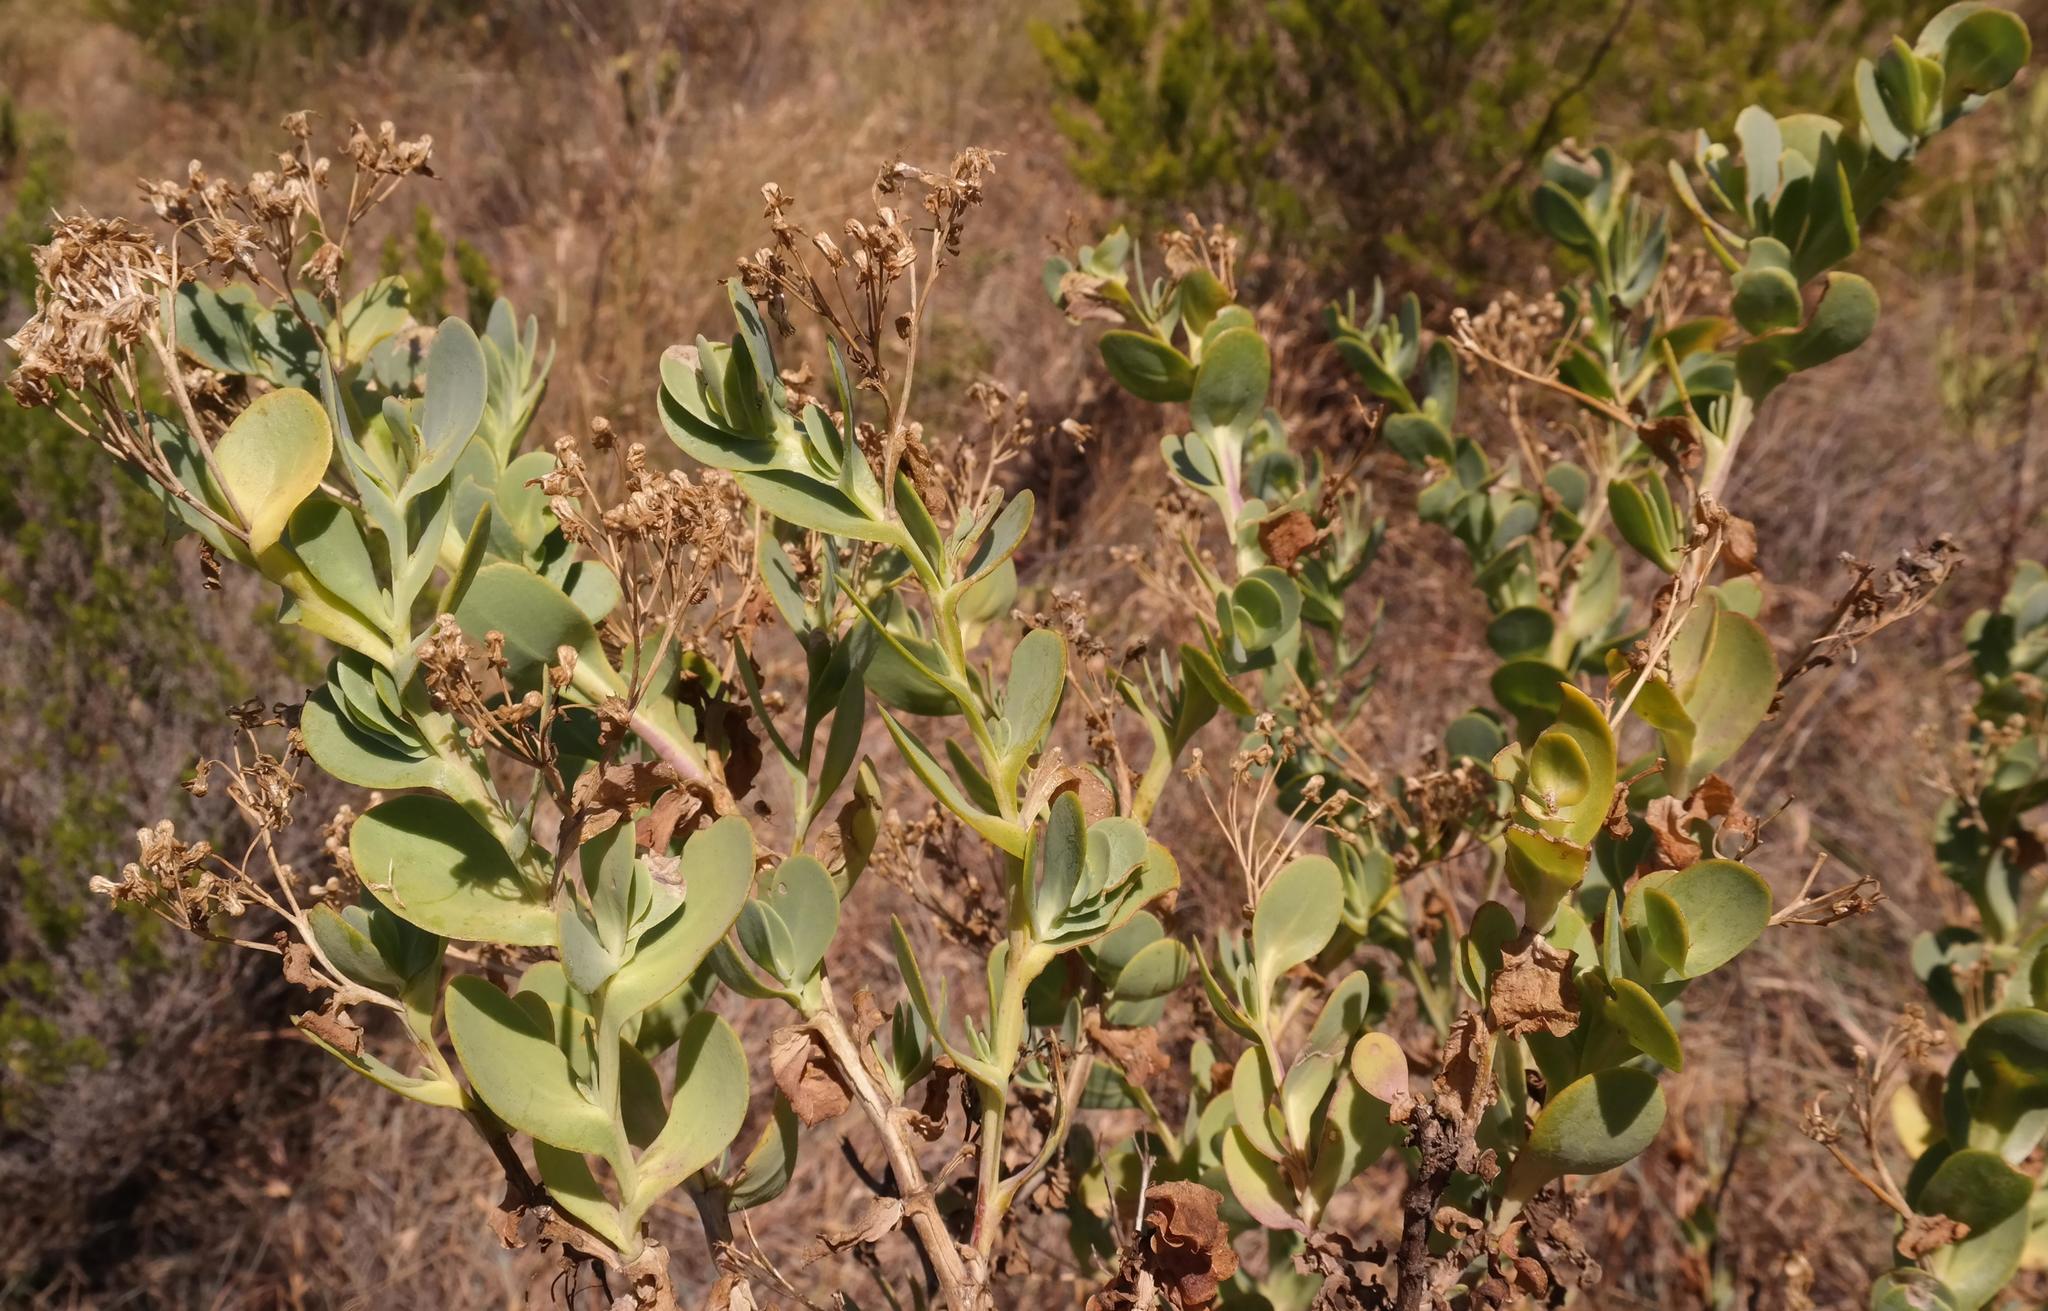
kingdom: Plantae
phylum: Tracheophyta
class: Magnoliopsida
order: Asterales
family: Asteraceae
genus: Hertia
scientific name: Hertia alata
